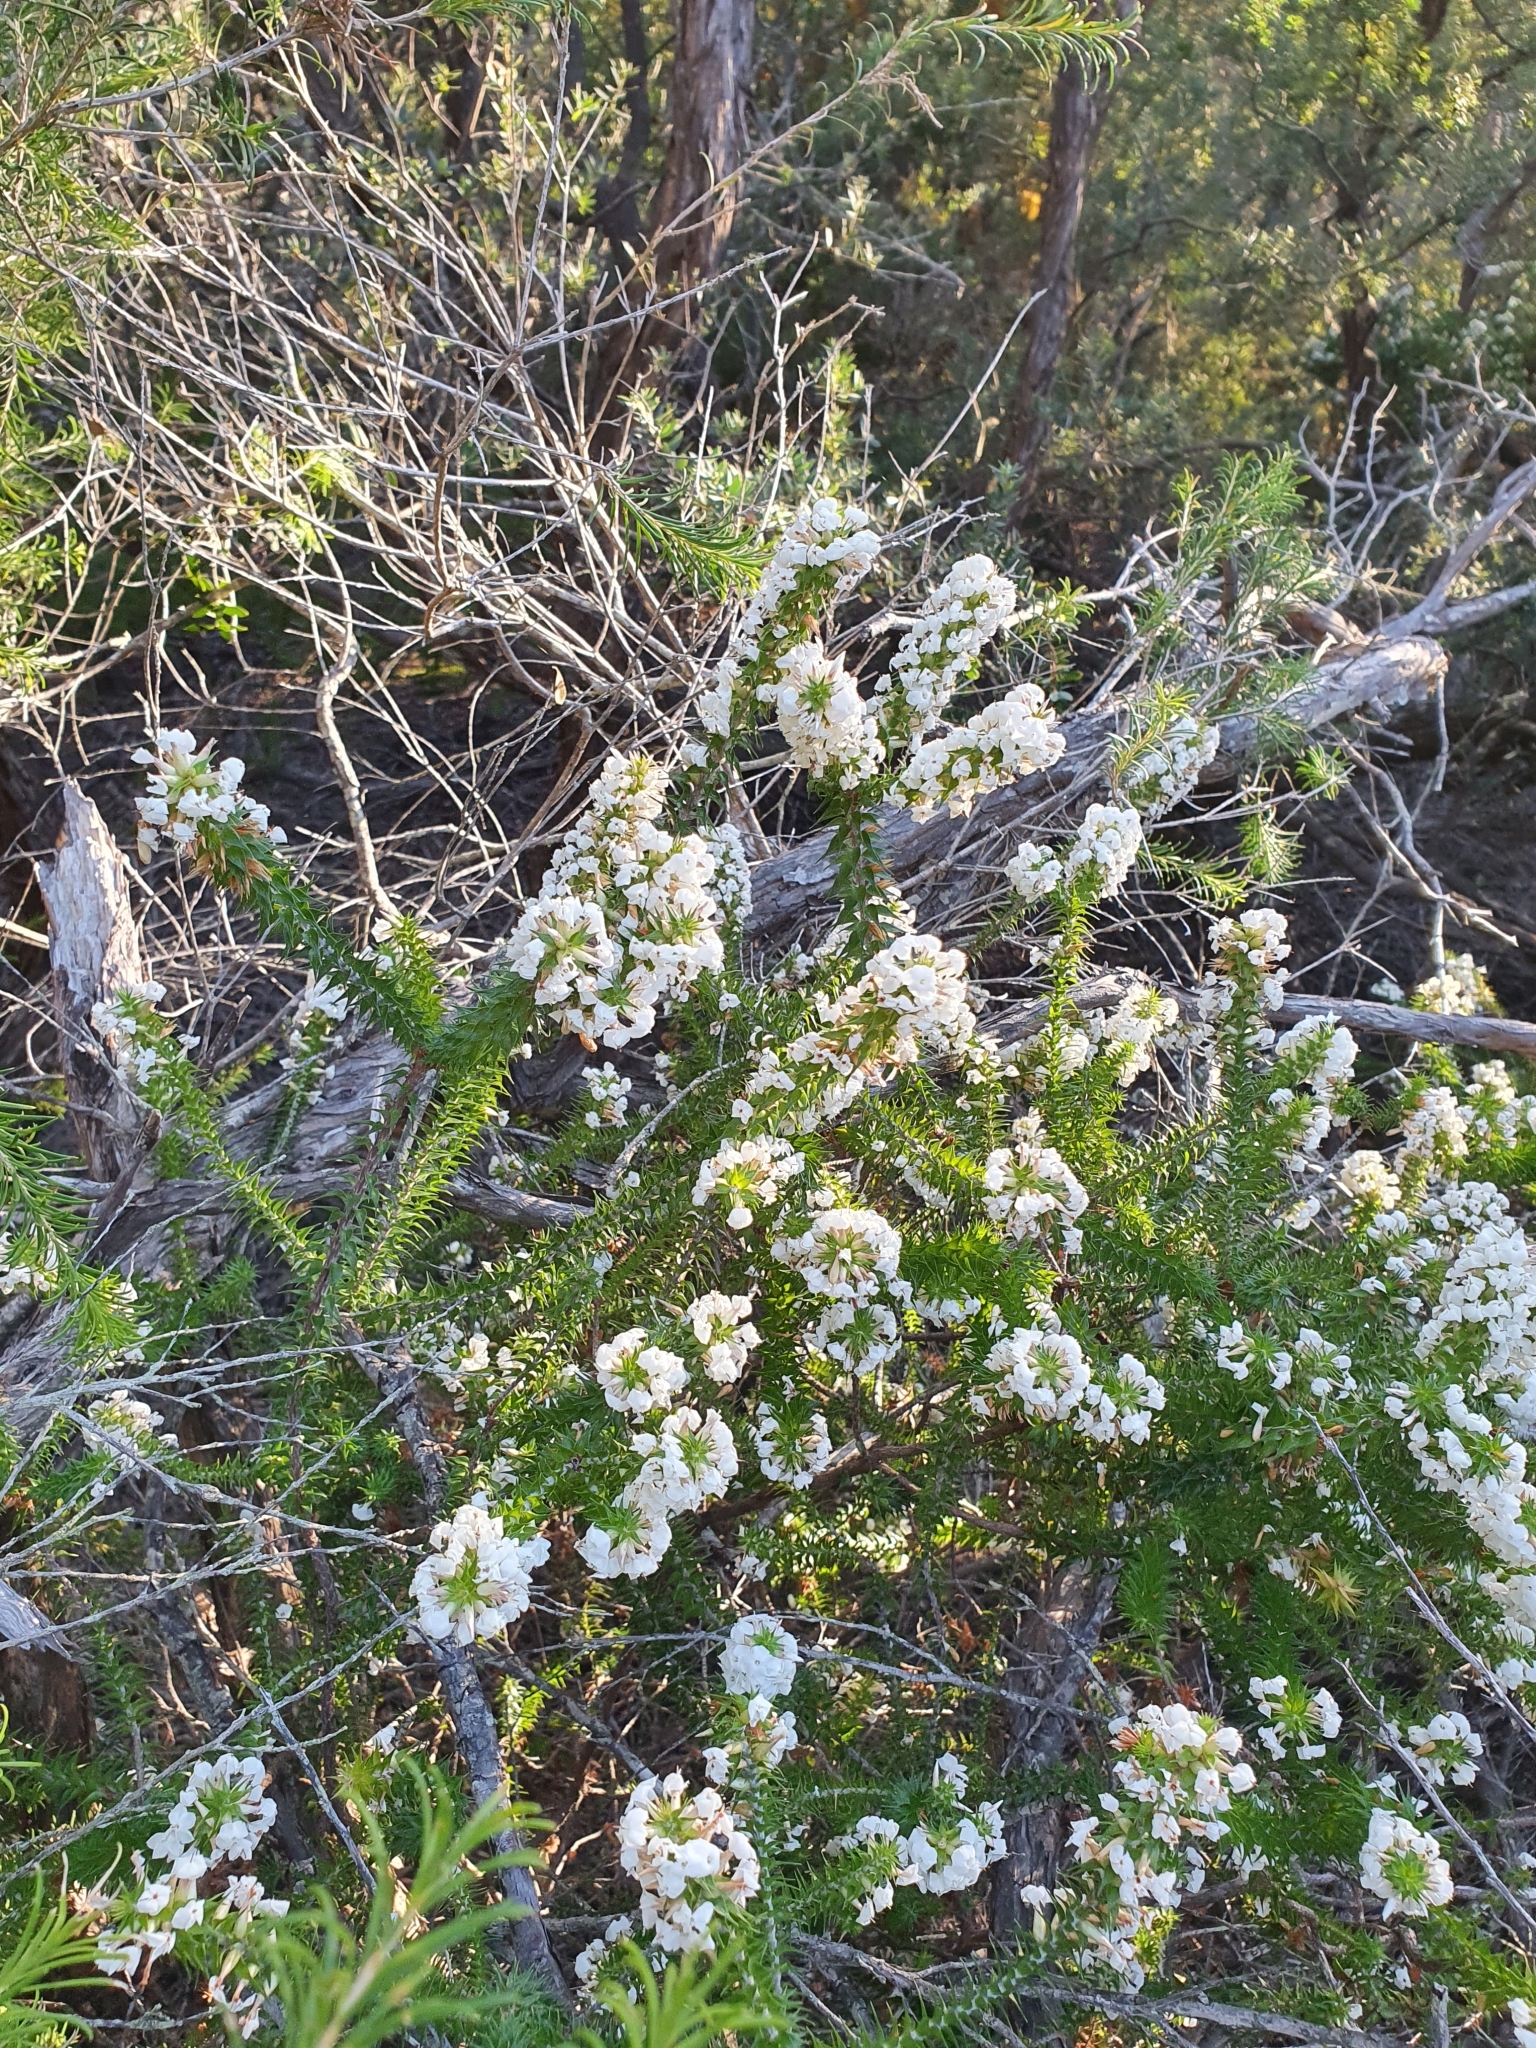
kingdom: Plantae
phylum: Tracheophyta
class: Magnoliopsida
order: Ericales
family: Ericaceae
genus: Woollsia
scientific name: Woollsia pungens
